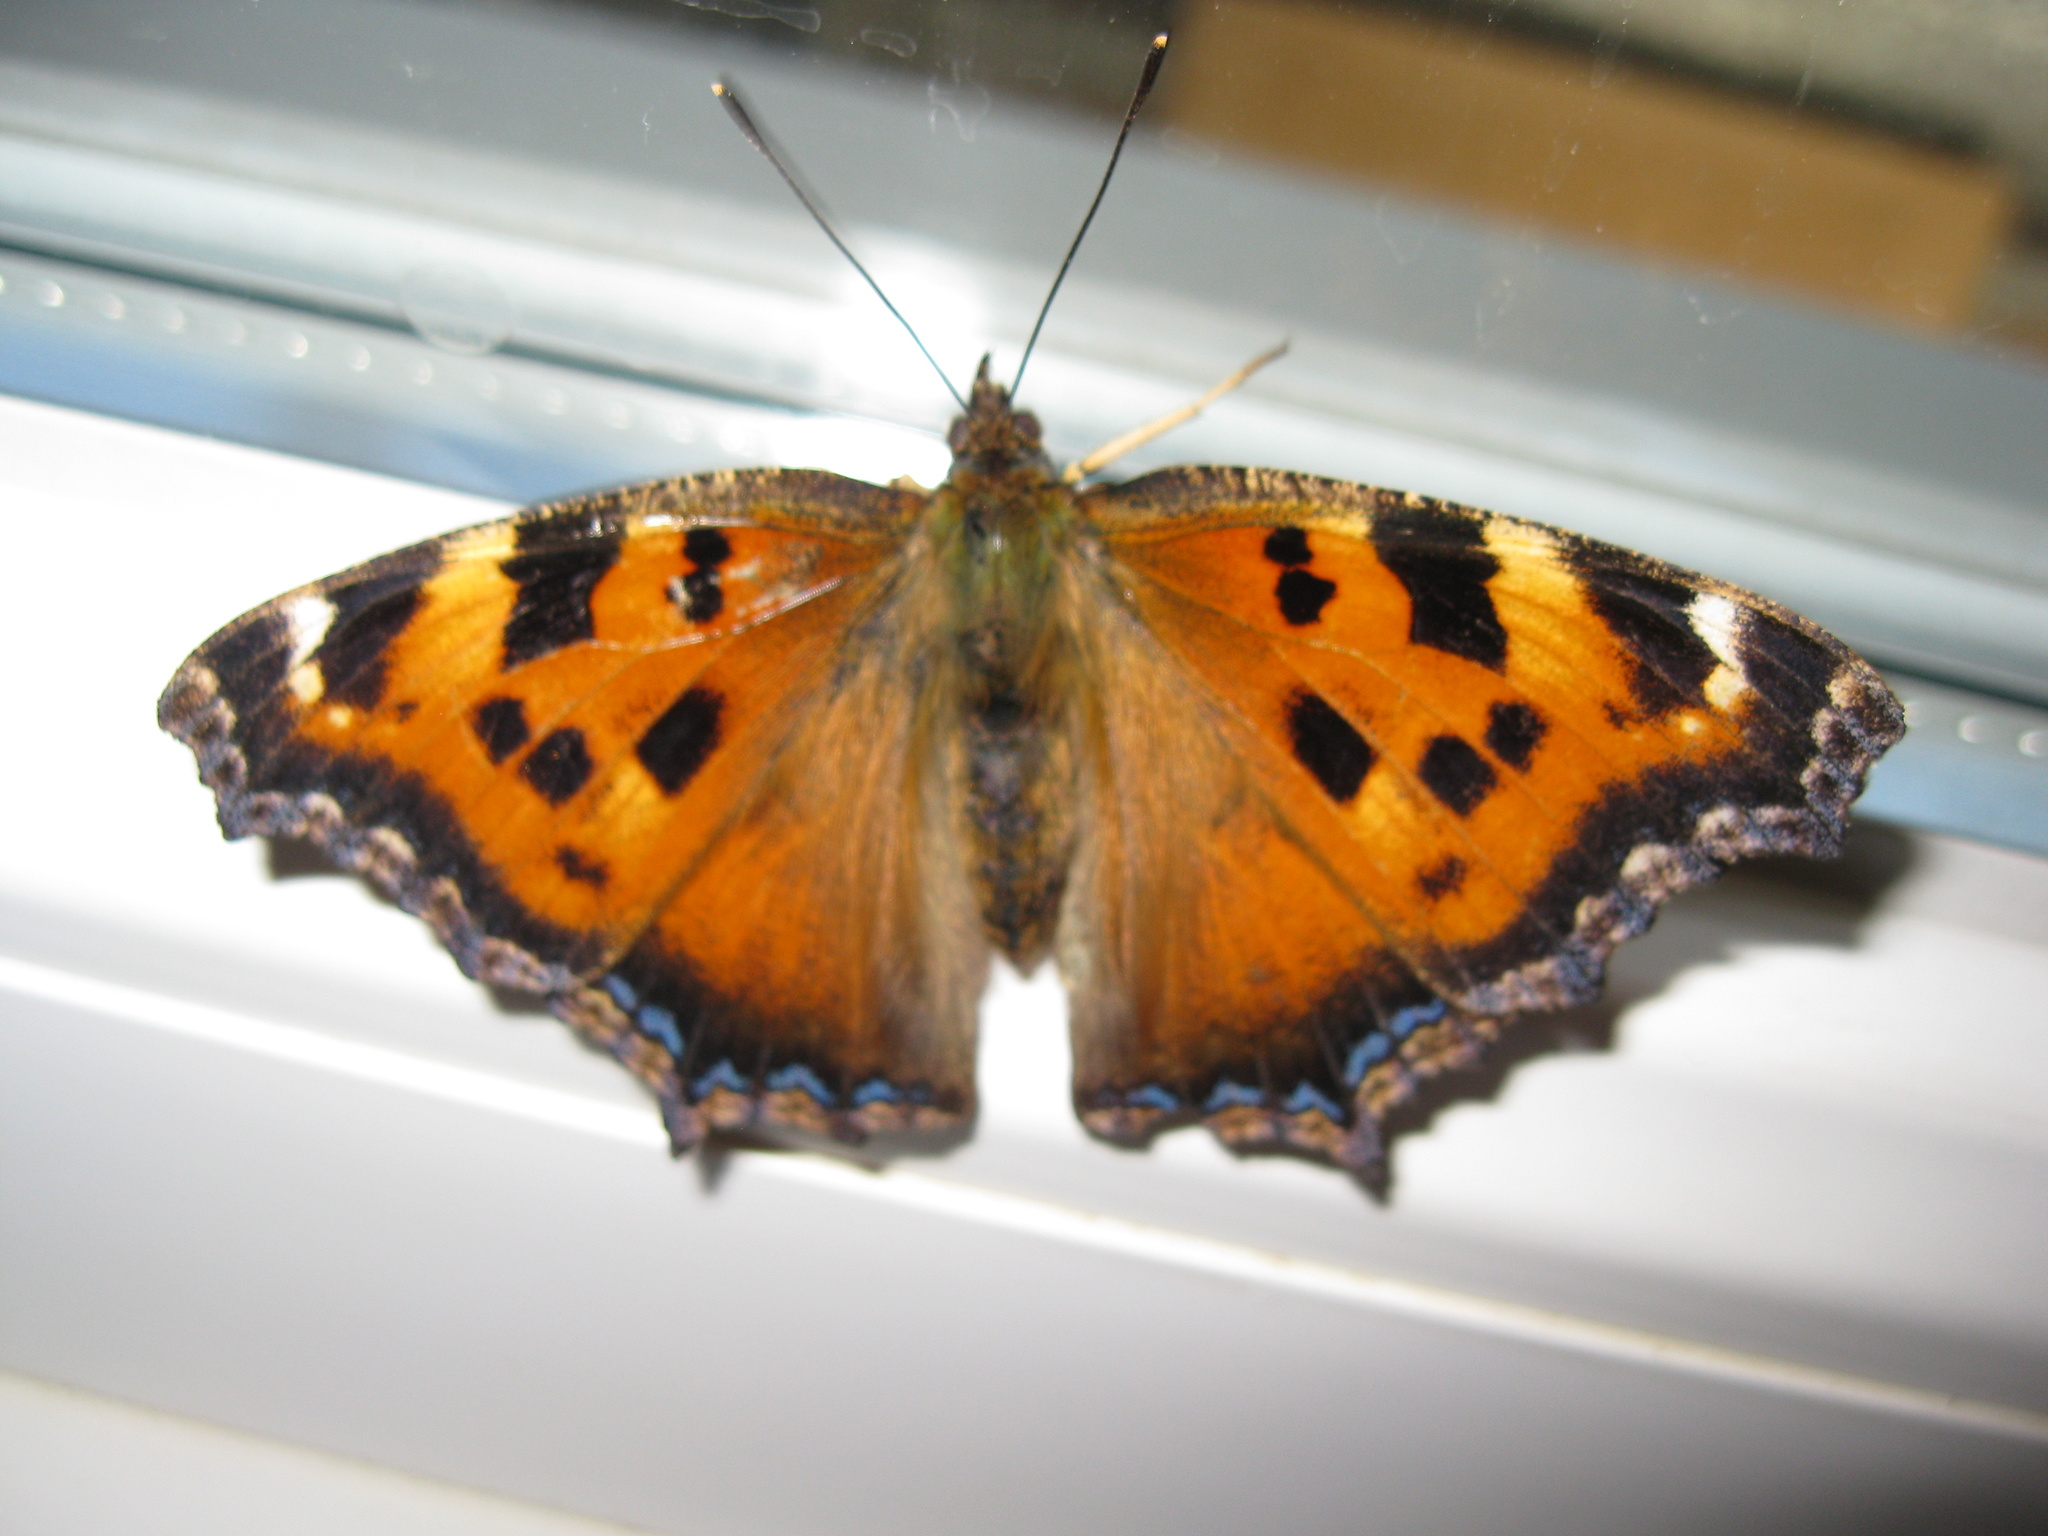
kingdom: Animalia
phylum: Arthropoda
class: Insecta
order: Lepidoptera
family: Nymphalidae
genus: Nymphalis
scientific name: Nymphalis xanthomelas
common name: Scarce tortoiseshell
